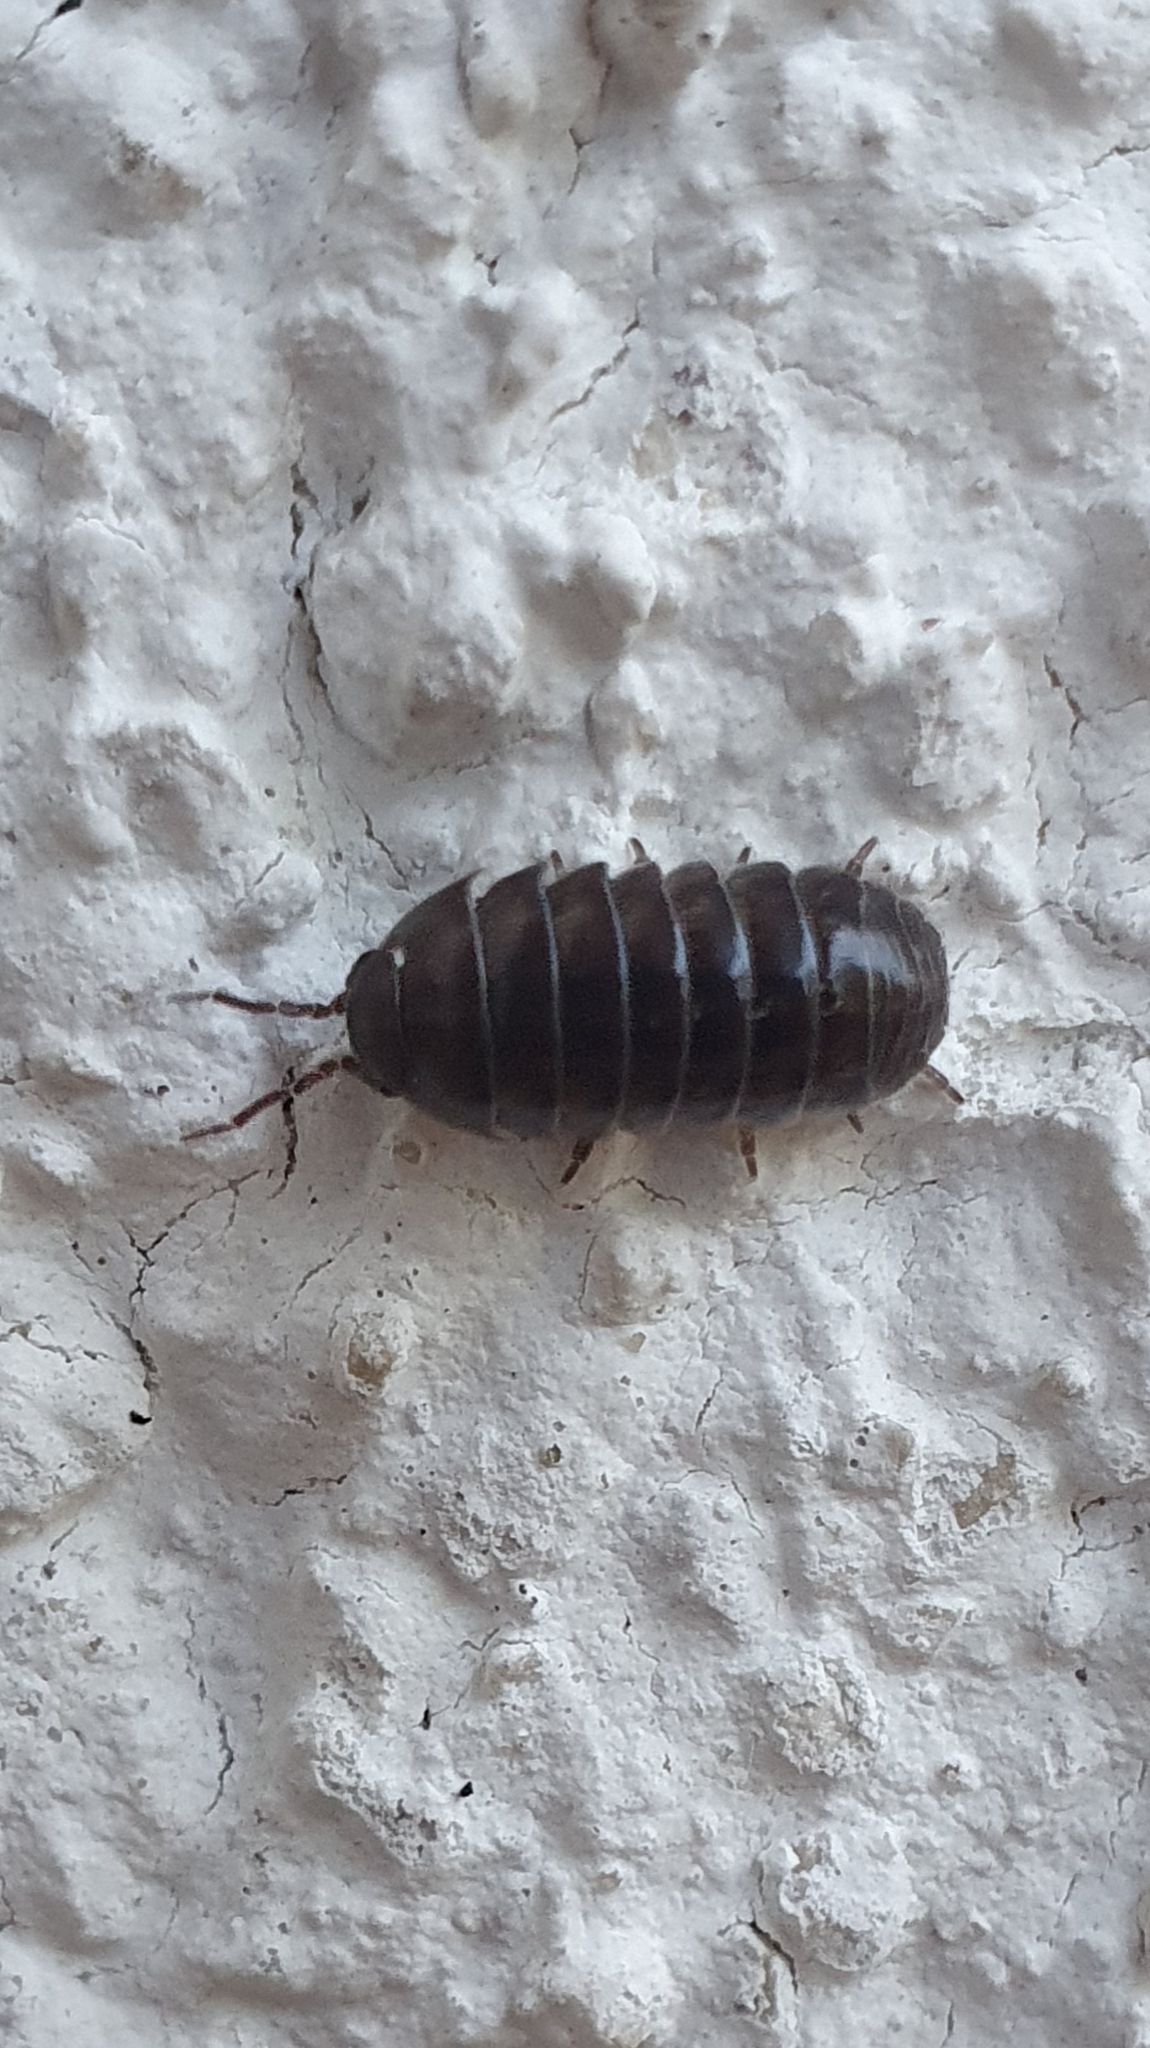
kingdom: Animalia
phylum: Arthropoda
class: Malacostraca
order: Isopoda
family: Armadillidiidae
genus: Armadillidium
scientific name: Armadillidium vulgare
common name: Common pill woodlouse
